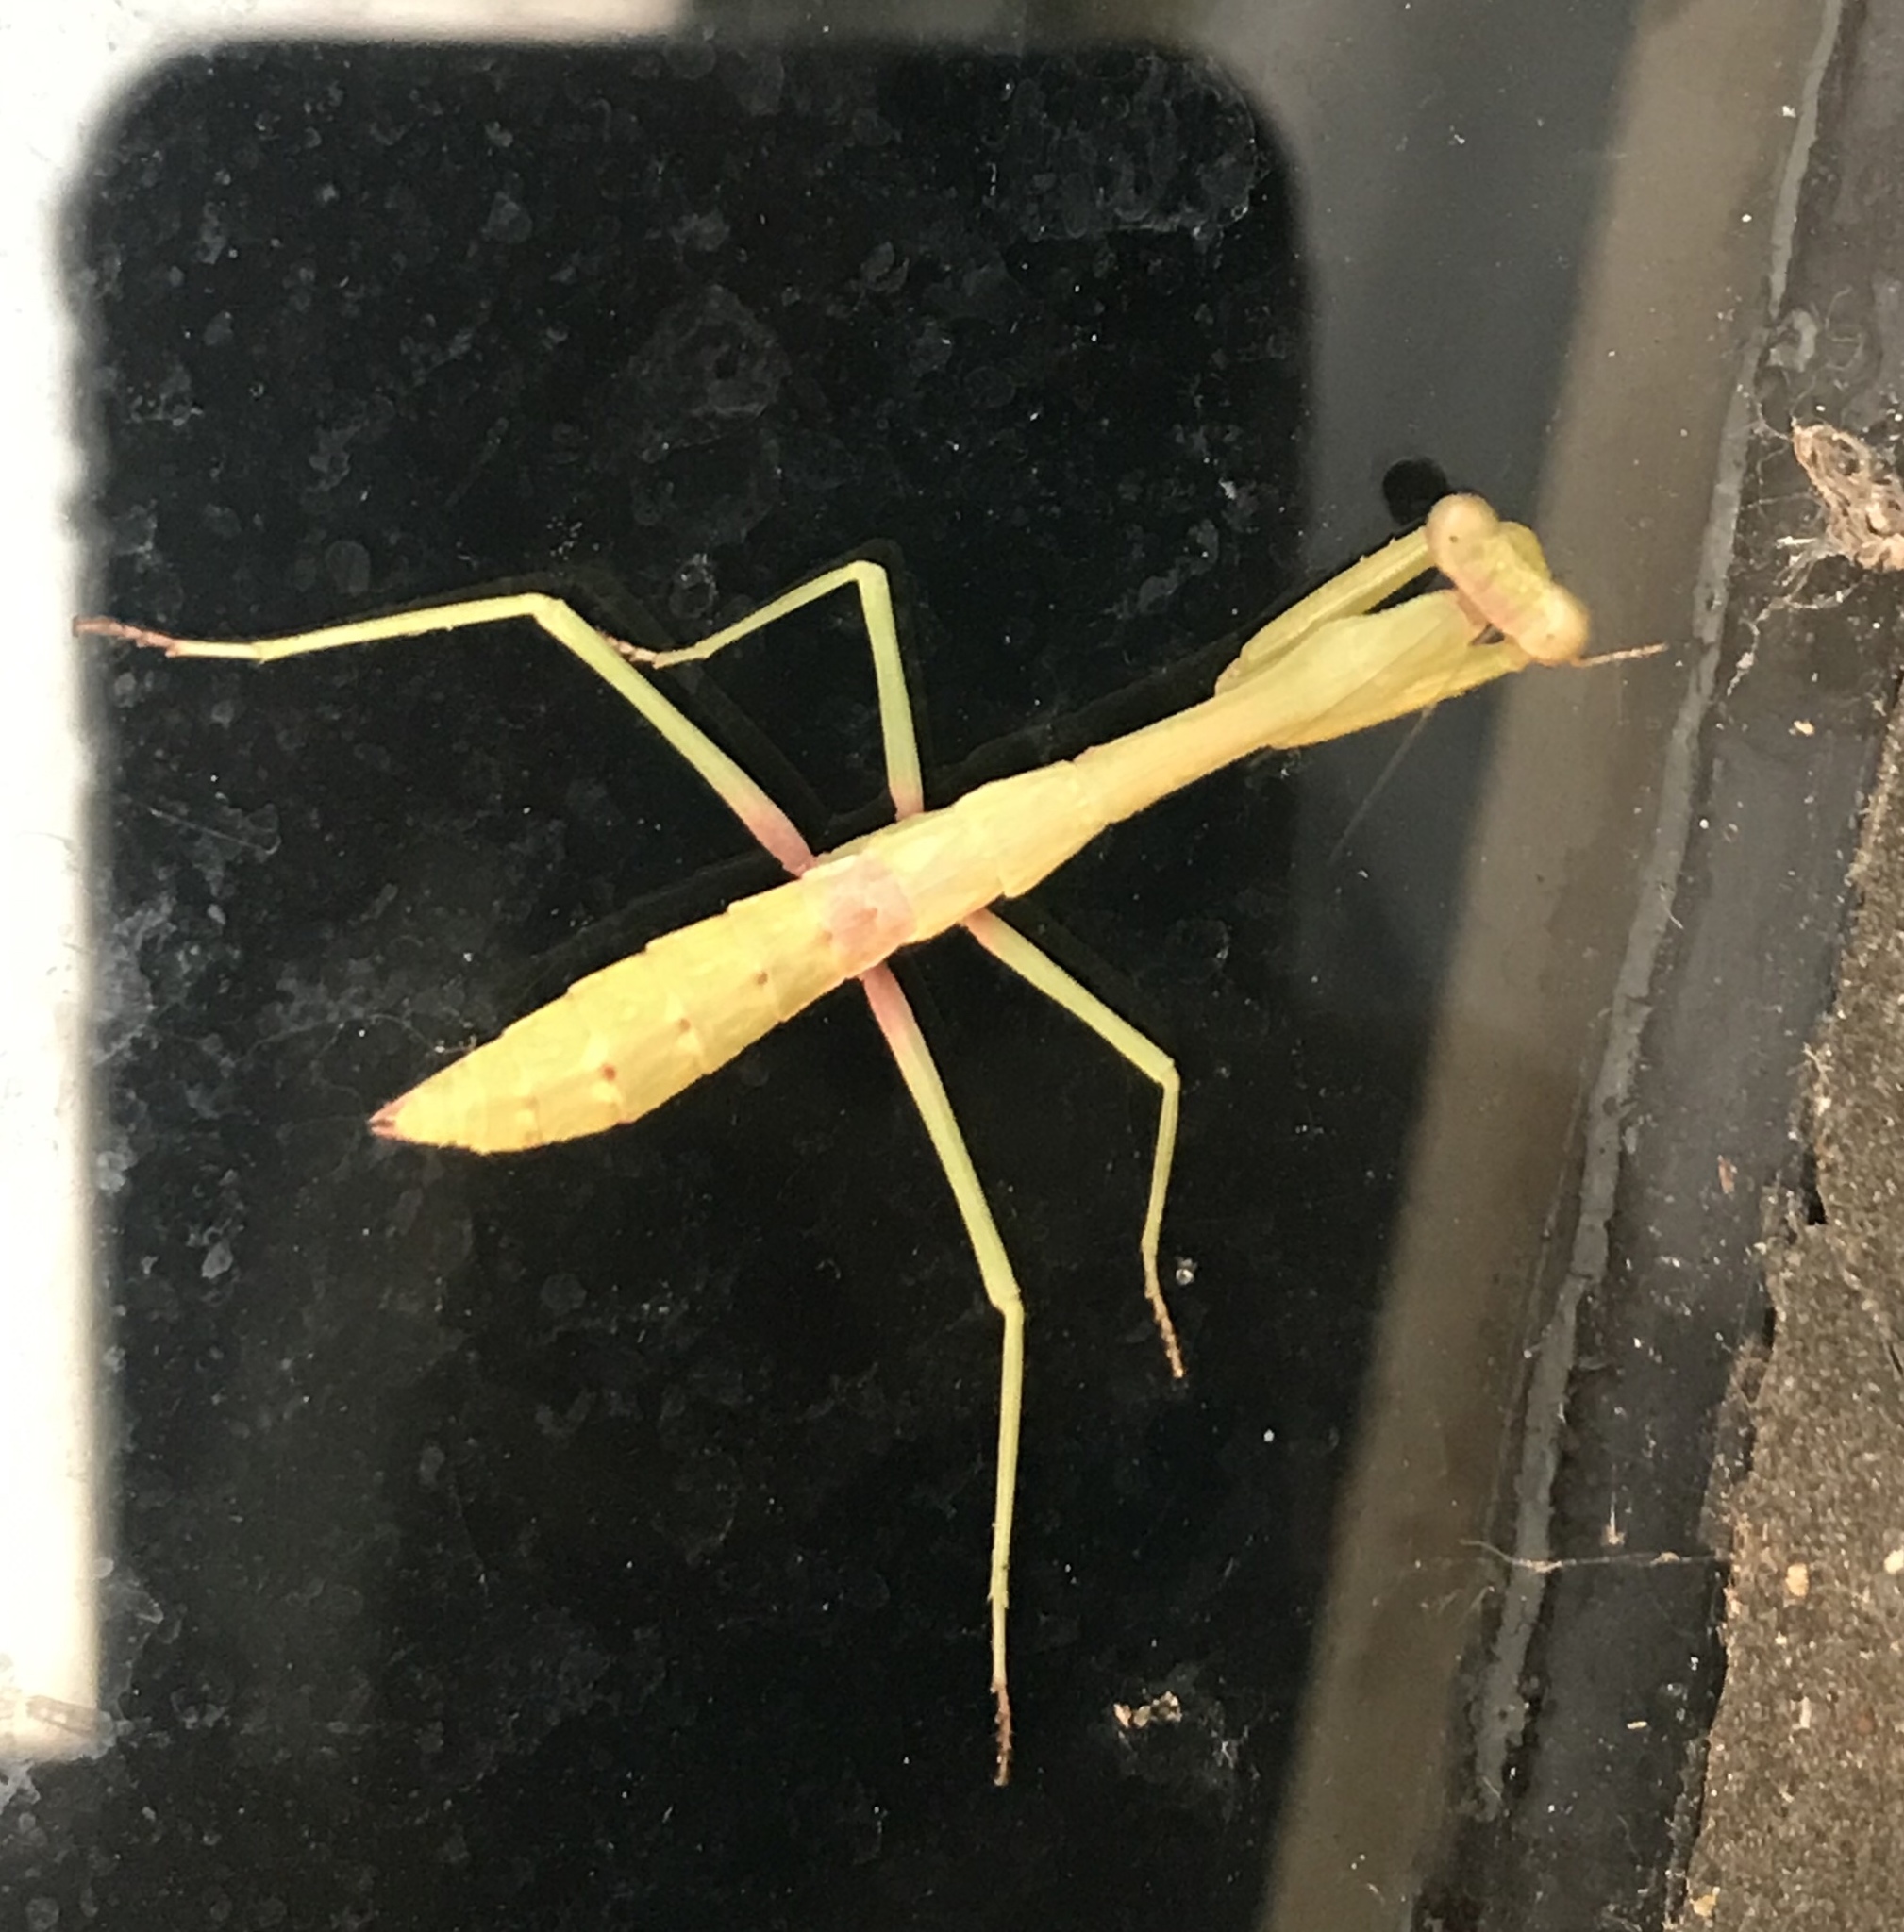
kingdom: Animalia
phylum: Arthropoda
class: Insecta
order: Mantodea
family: Mantidae
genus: Stagmomantis
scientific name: Stagmomantis carolina
